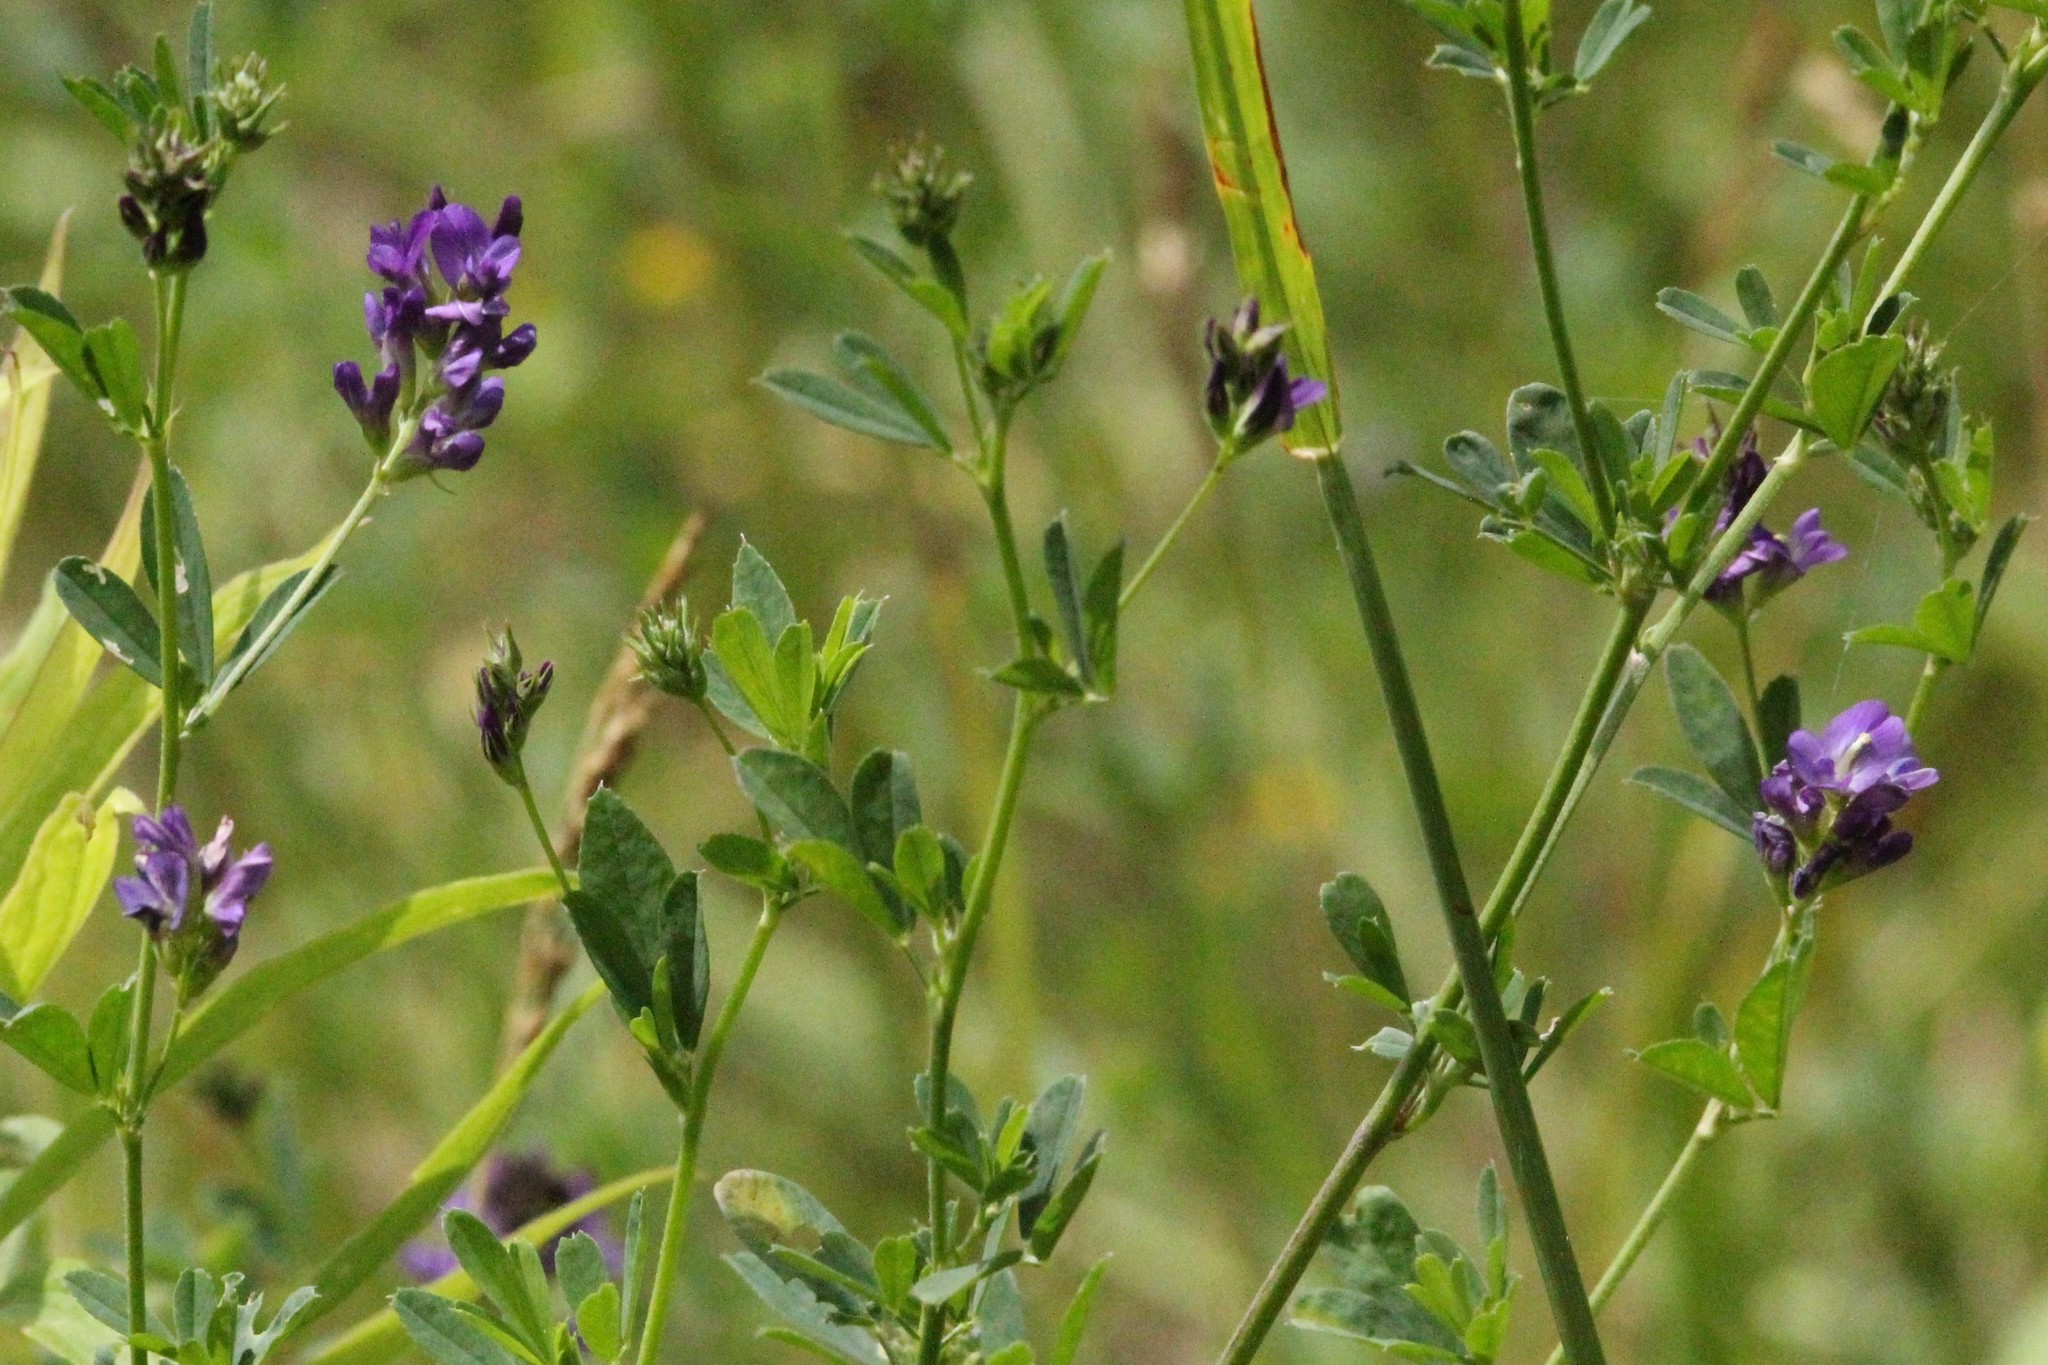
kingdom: Plantae
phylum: Tracheophyta
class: Magnoliopsida
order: Fabales
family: Fabaceae
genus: Medicago
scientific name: Medicago sativa
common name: Alfalfa
